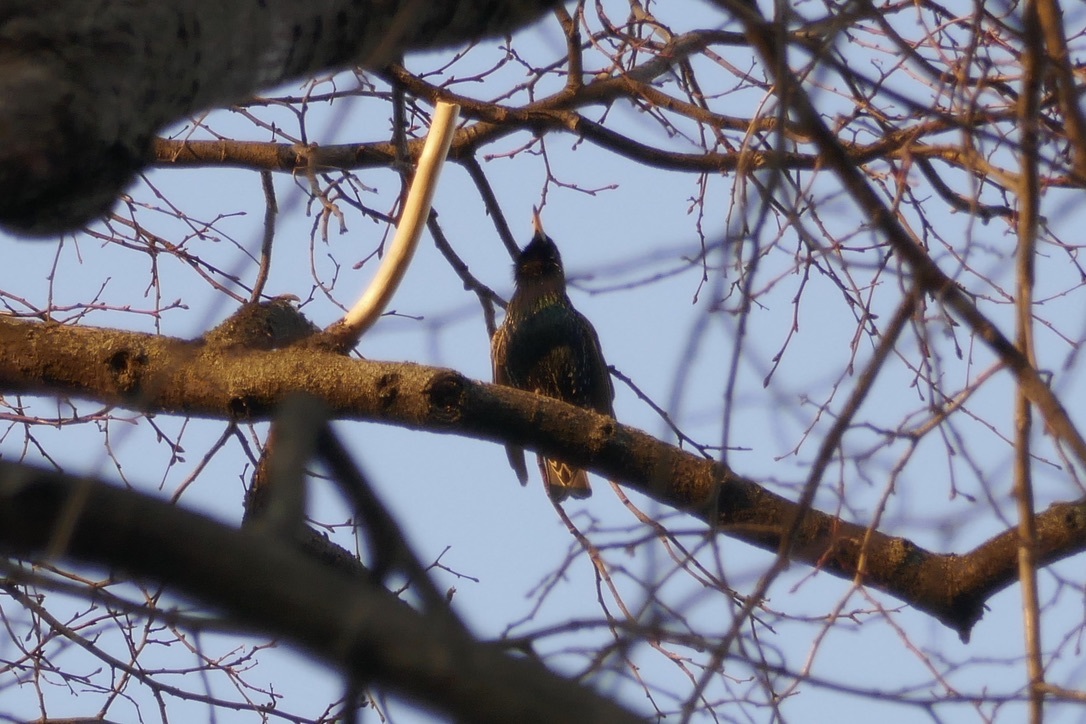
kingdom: Animalia
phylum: Chordata
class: Aves
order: Passeriformes
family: Sturnidae
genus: Sturnus
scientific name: Sturnus vulgaris
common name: Common starling
